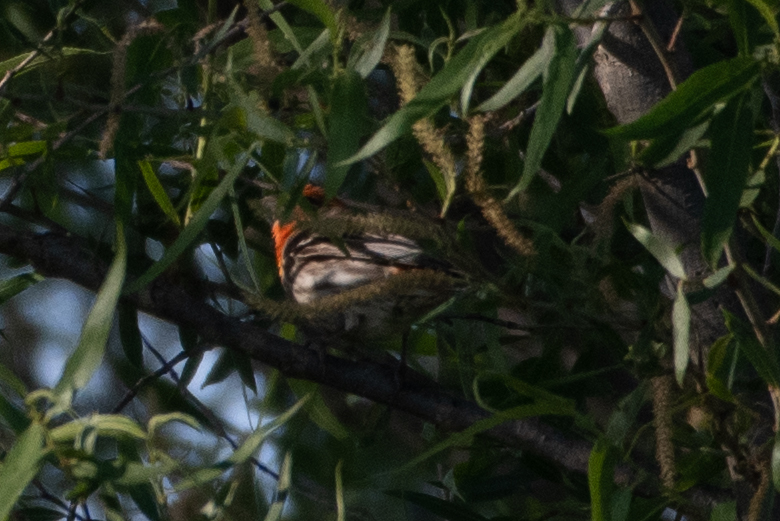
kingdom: Animalia
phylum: Chordata
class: Aves
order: Passeriformes
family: Fringillidae
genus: Haemorhous
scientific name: Haemorhous mexicanus
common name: House finch
